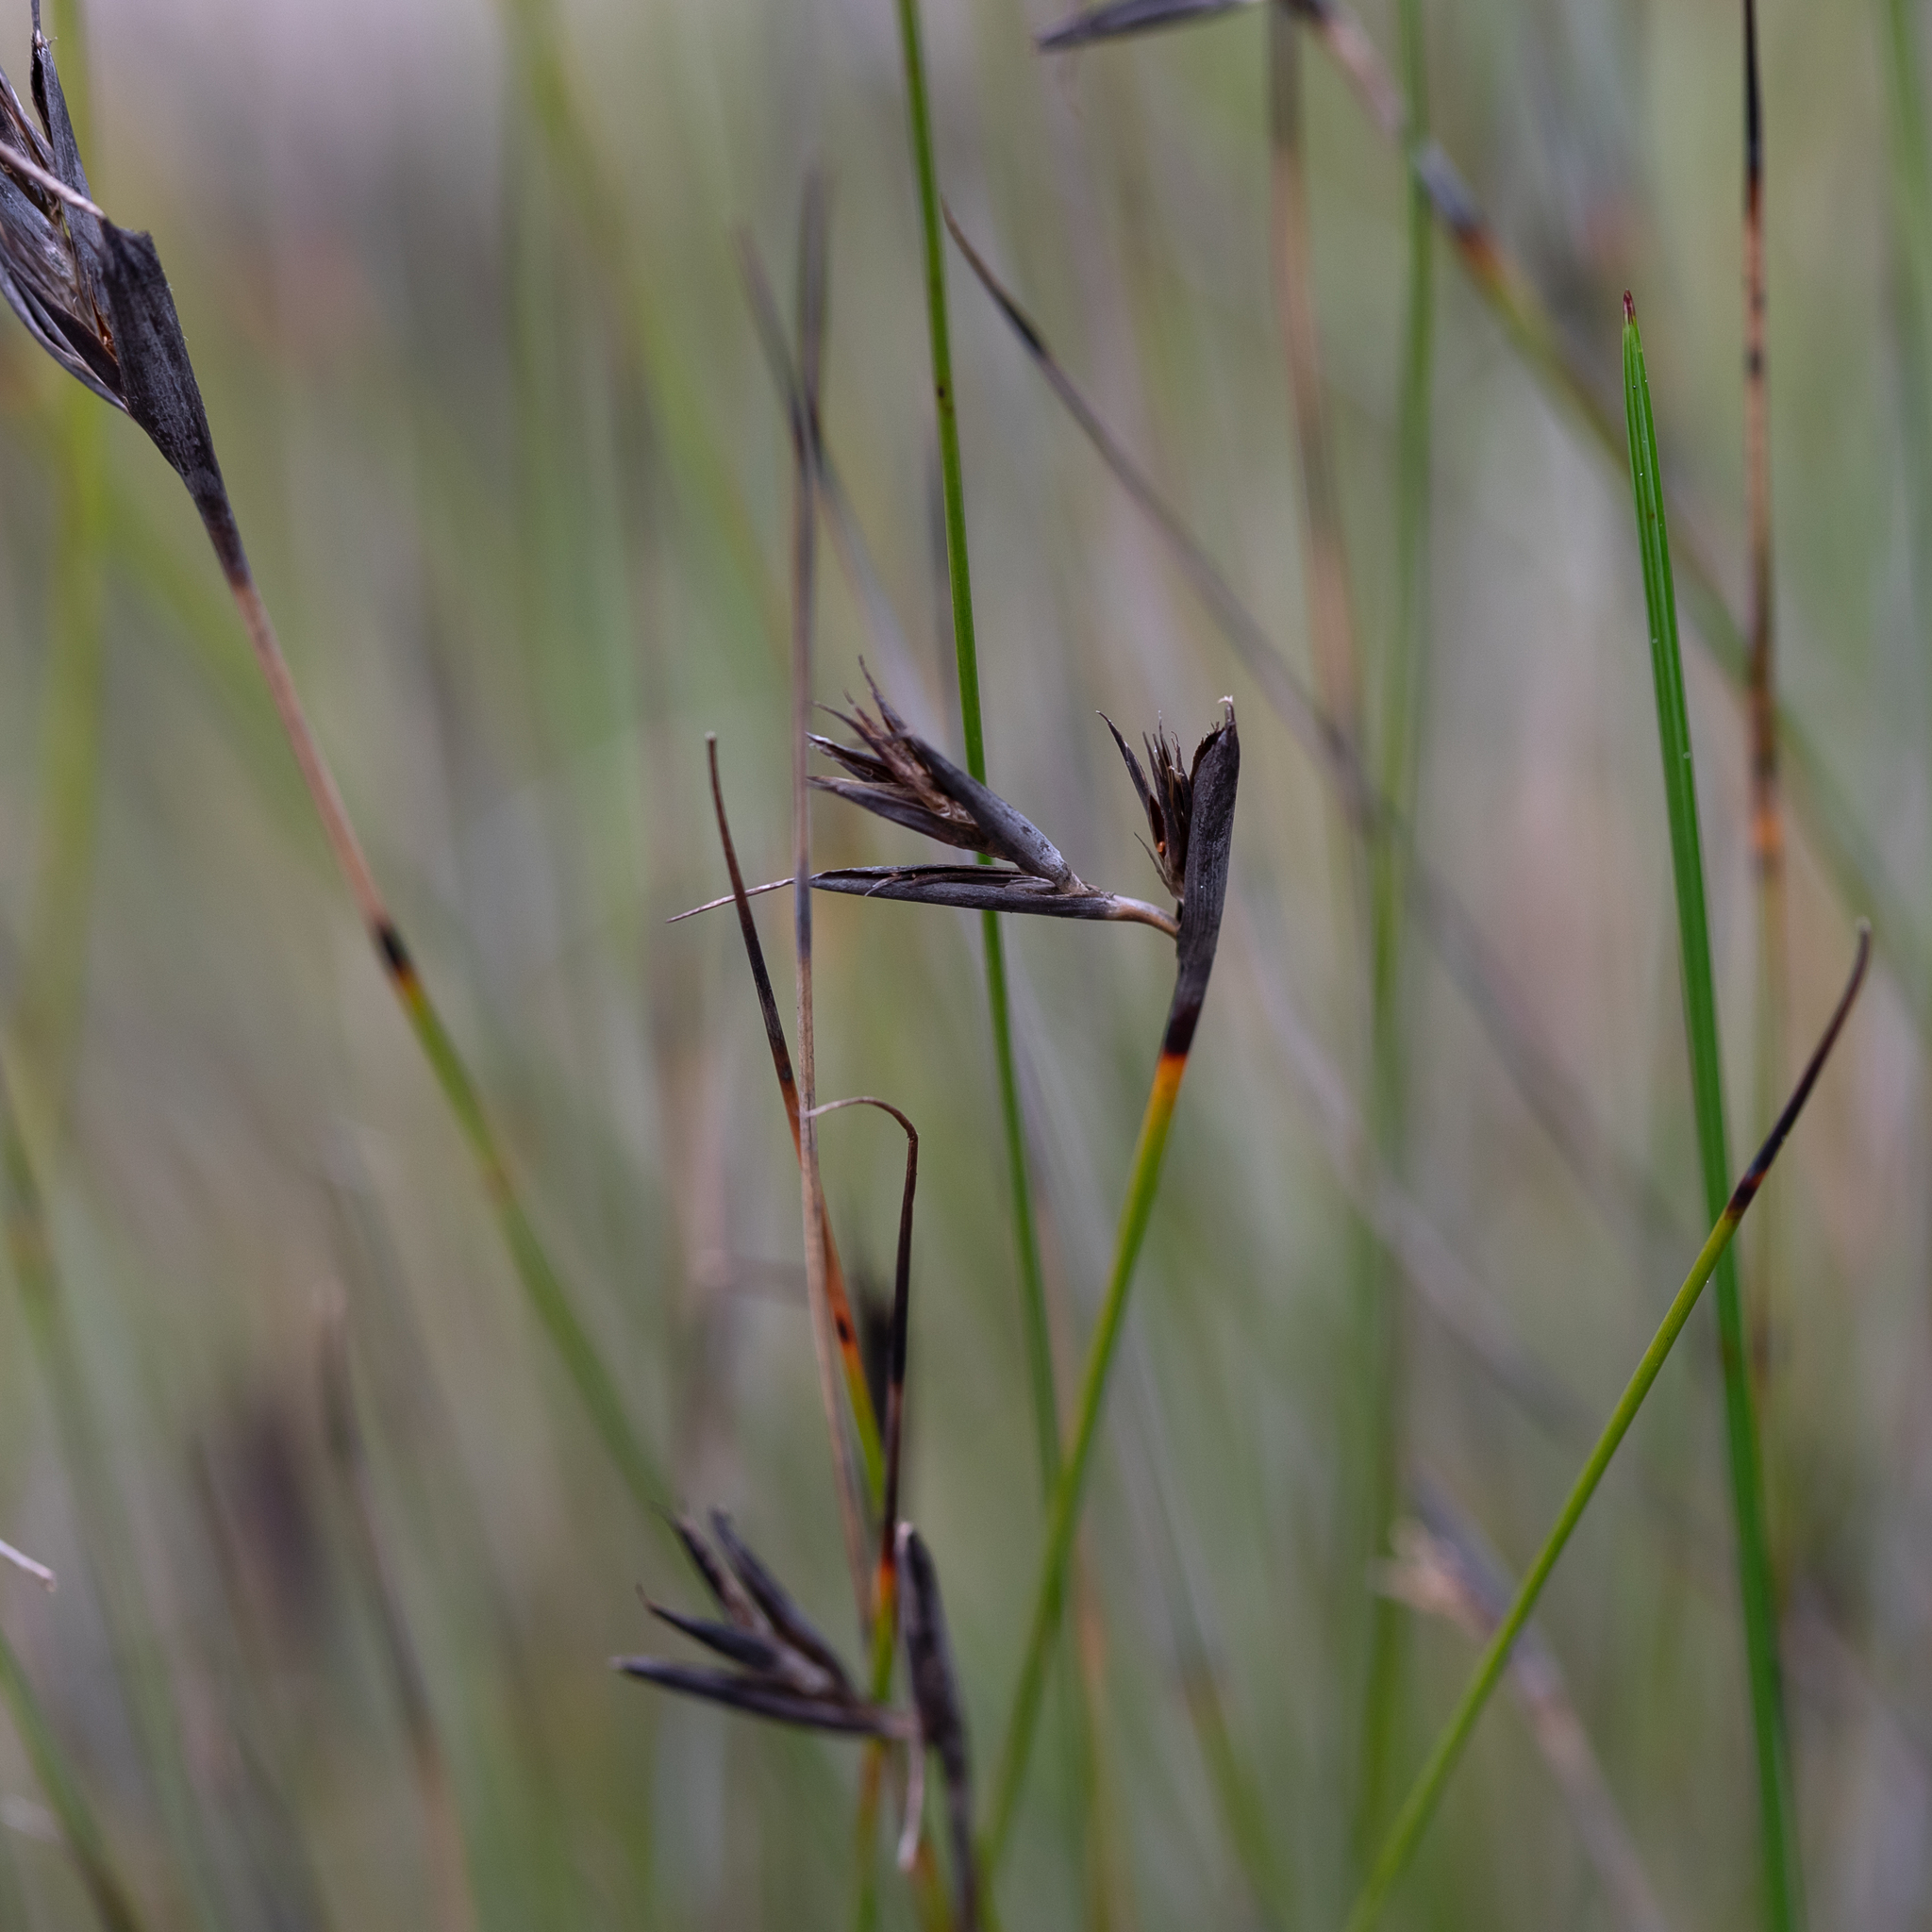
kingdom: Plantae
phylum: Tracheophyta
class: Liliopsida
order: Poales
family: Cyperaceae
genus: Lepidosperma
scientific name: Lepidosperma carphoides
